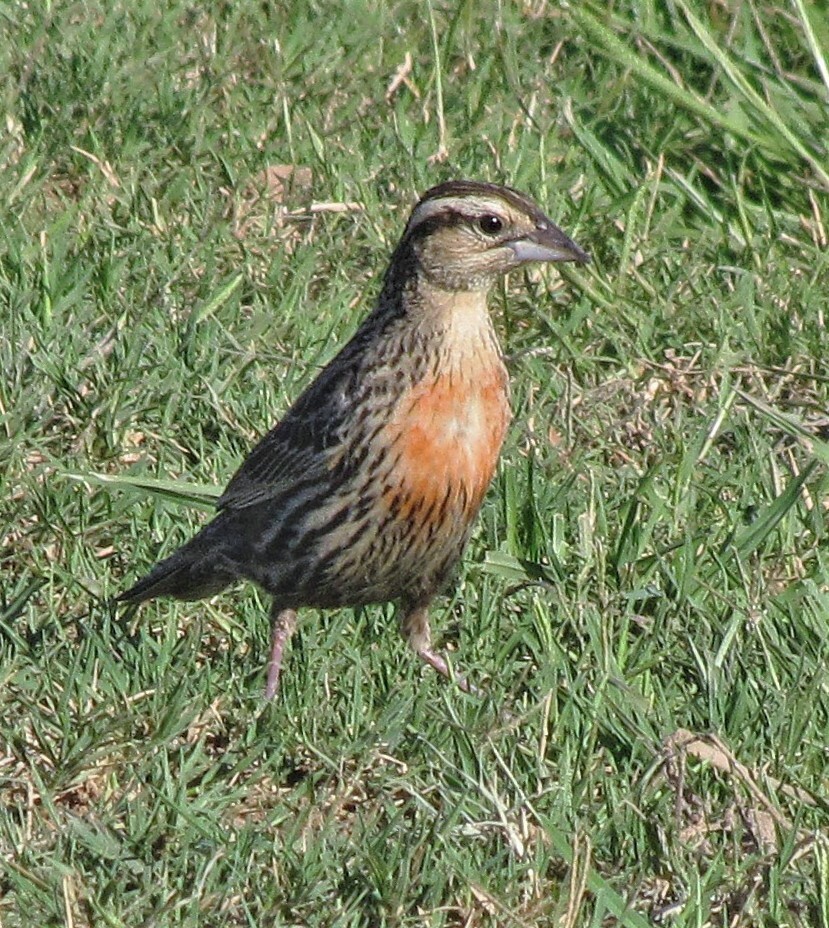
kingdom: Animalia
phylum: Chordata
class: Aves
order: Passeriformes
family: Icteridae
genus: Sturnella
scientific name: Sturnella superciliaris
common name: White-browed blackbird
